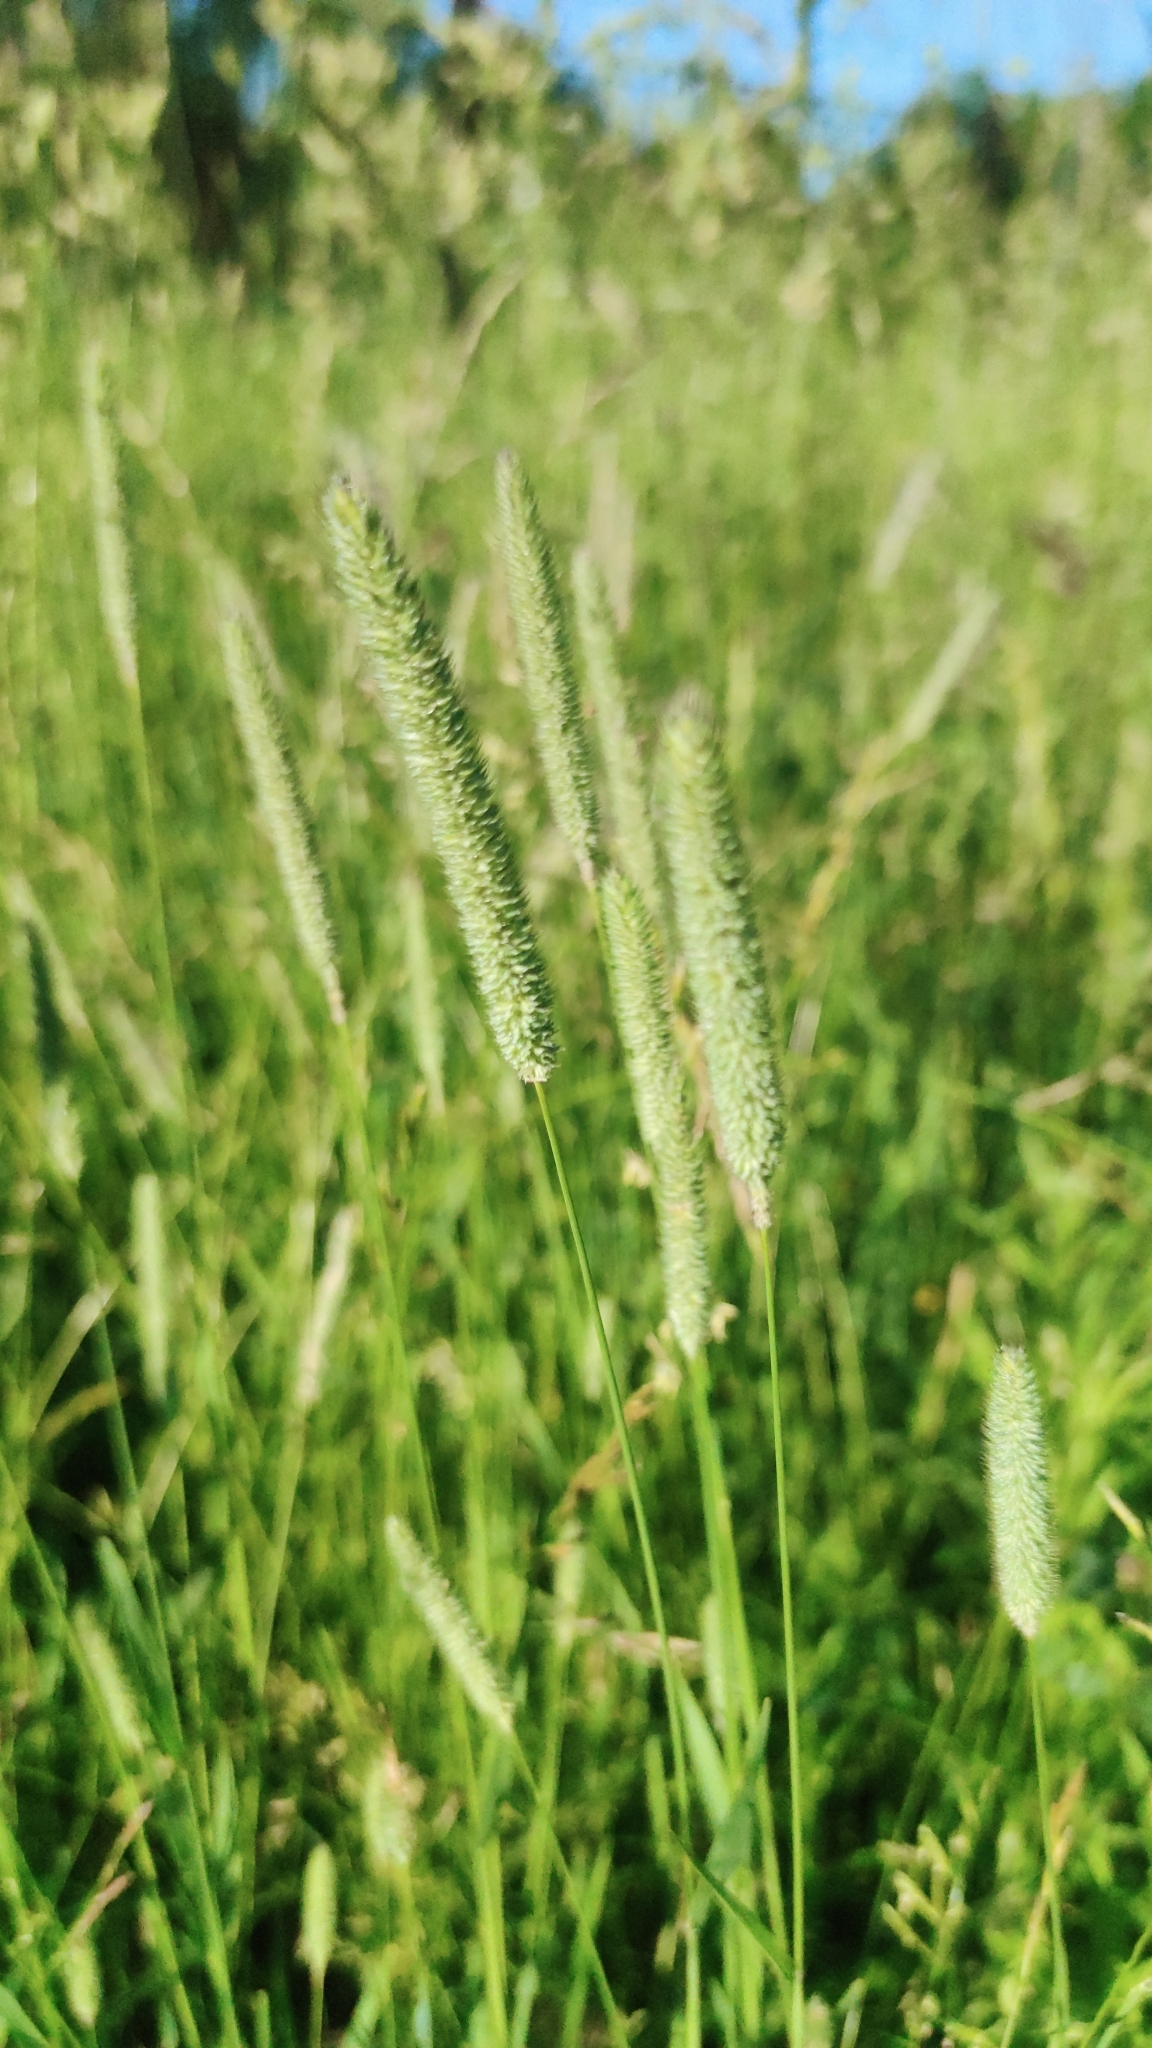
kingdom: Plantae
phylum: Tracheophyta
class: Liliopsida
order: Poales
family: Poaceae
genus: Phleum
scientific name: Phleum pratense
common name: Timothy grass
